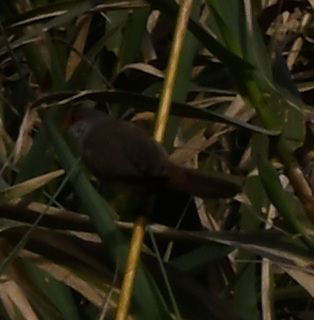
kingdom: Animalia
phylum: Chordata
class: Aves
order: Passeriformes
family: Estrildidae
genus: Estrilda
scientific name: Estrilda astrild
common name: Common waxbill
